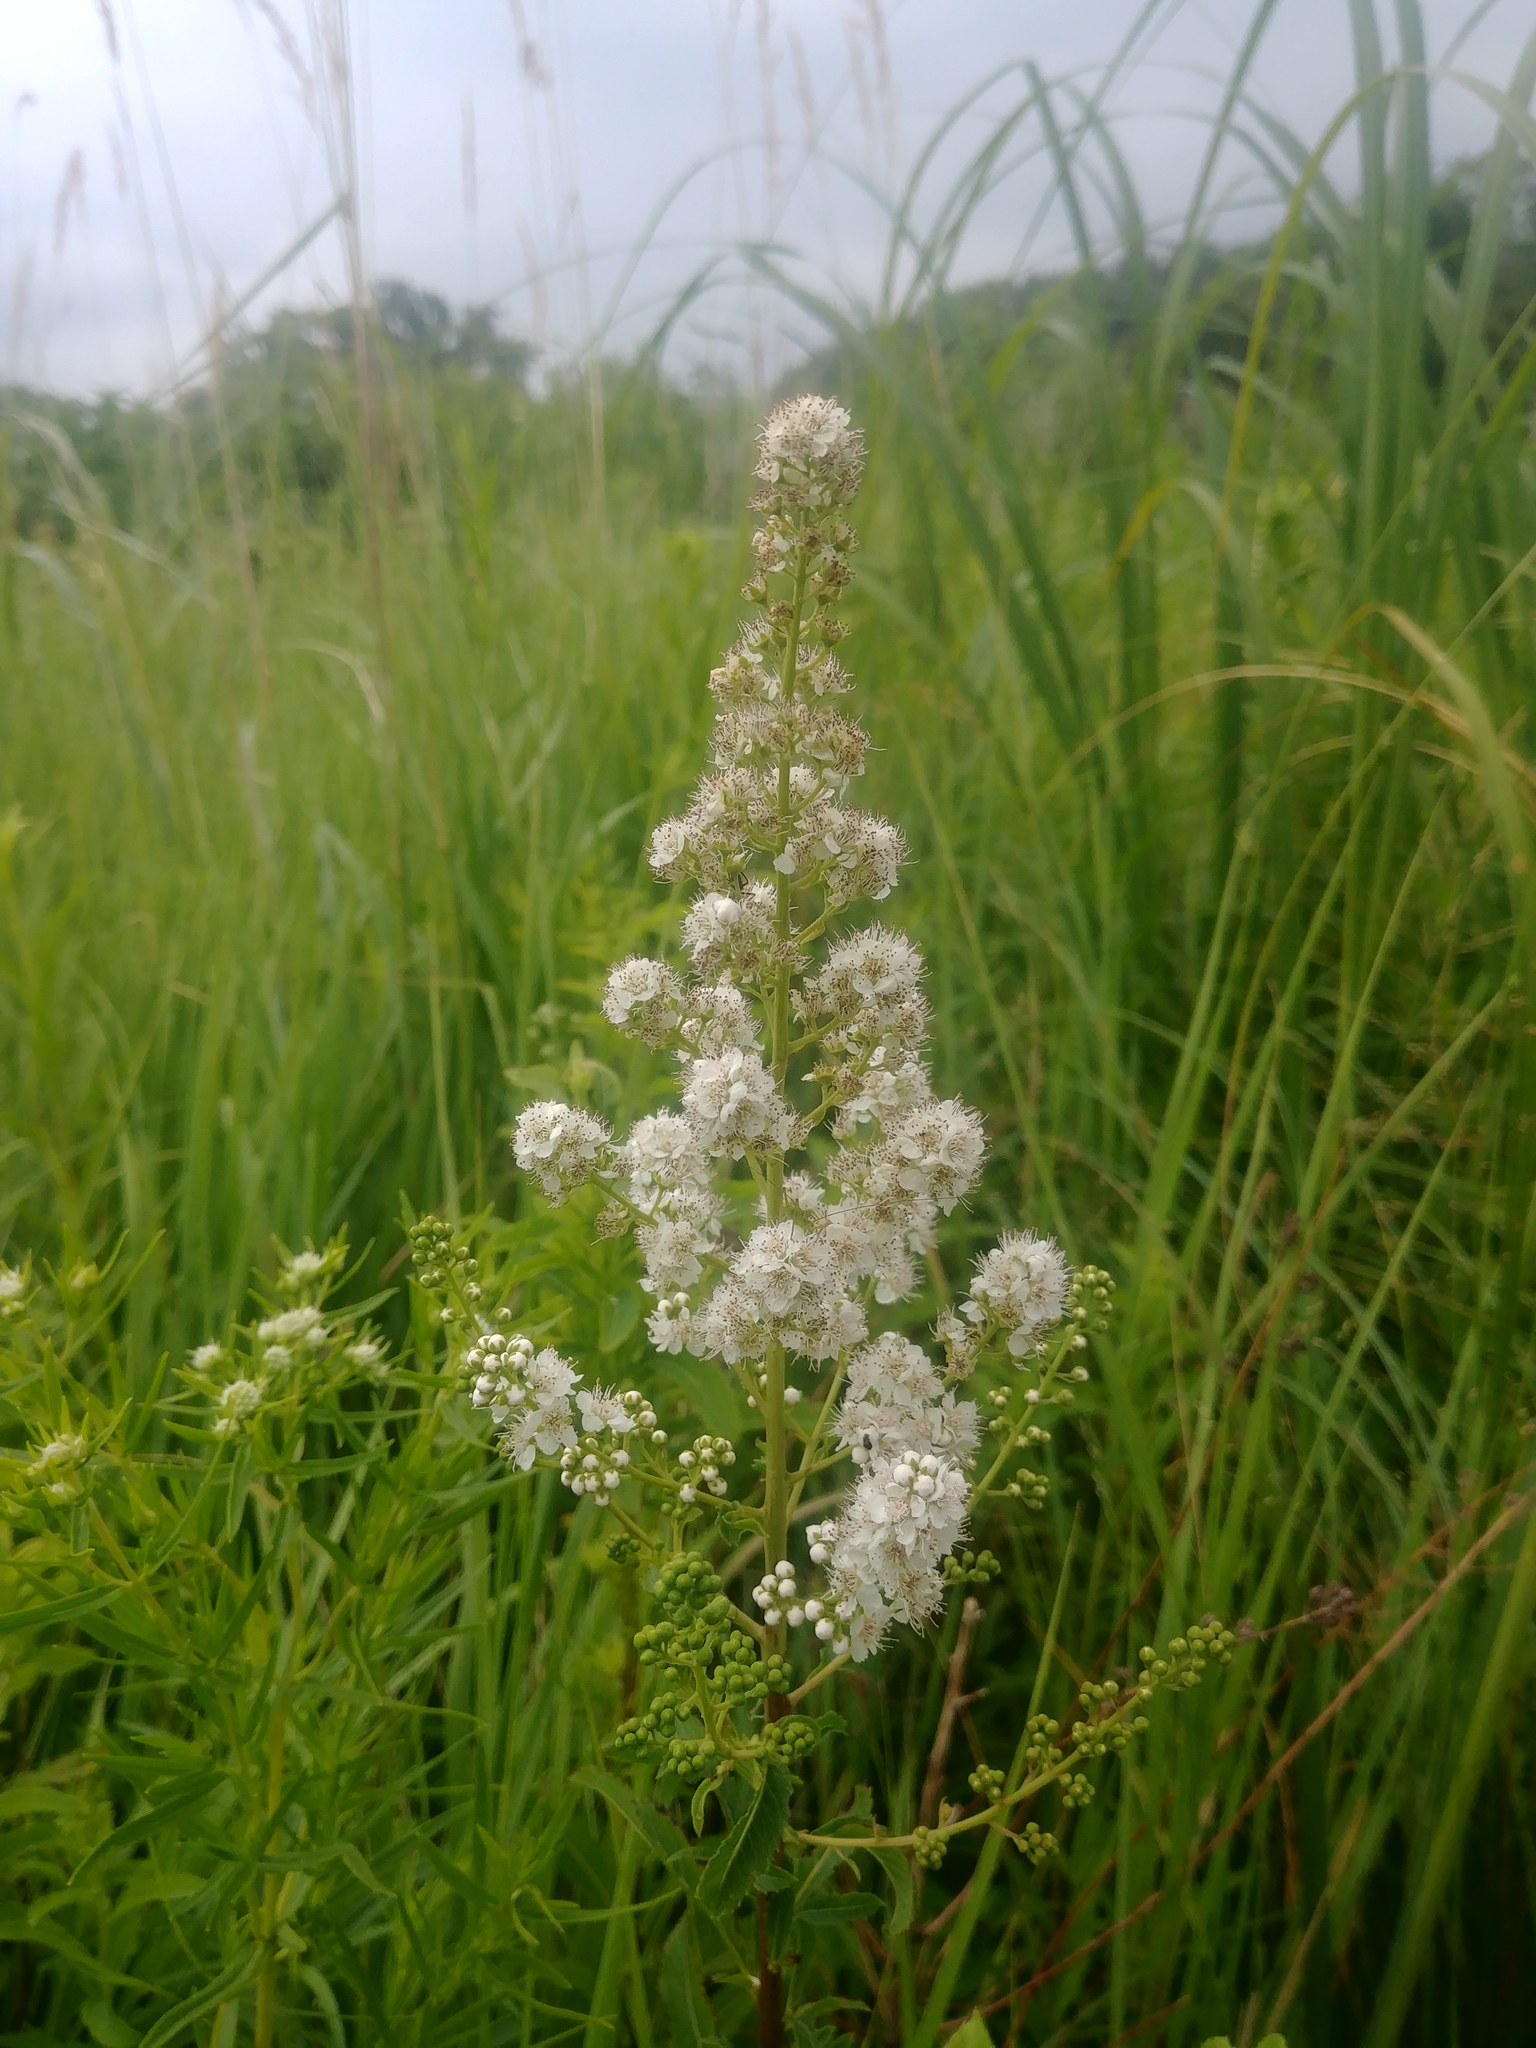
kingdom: Plantae
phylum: Tracheophyta
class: Magnoliopsida
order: Rosales
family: Rosaceae
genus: Spiraea
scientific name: Spiraea alba
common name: Pale bridewort
